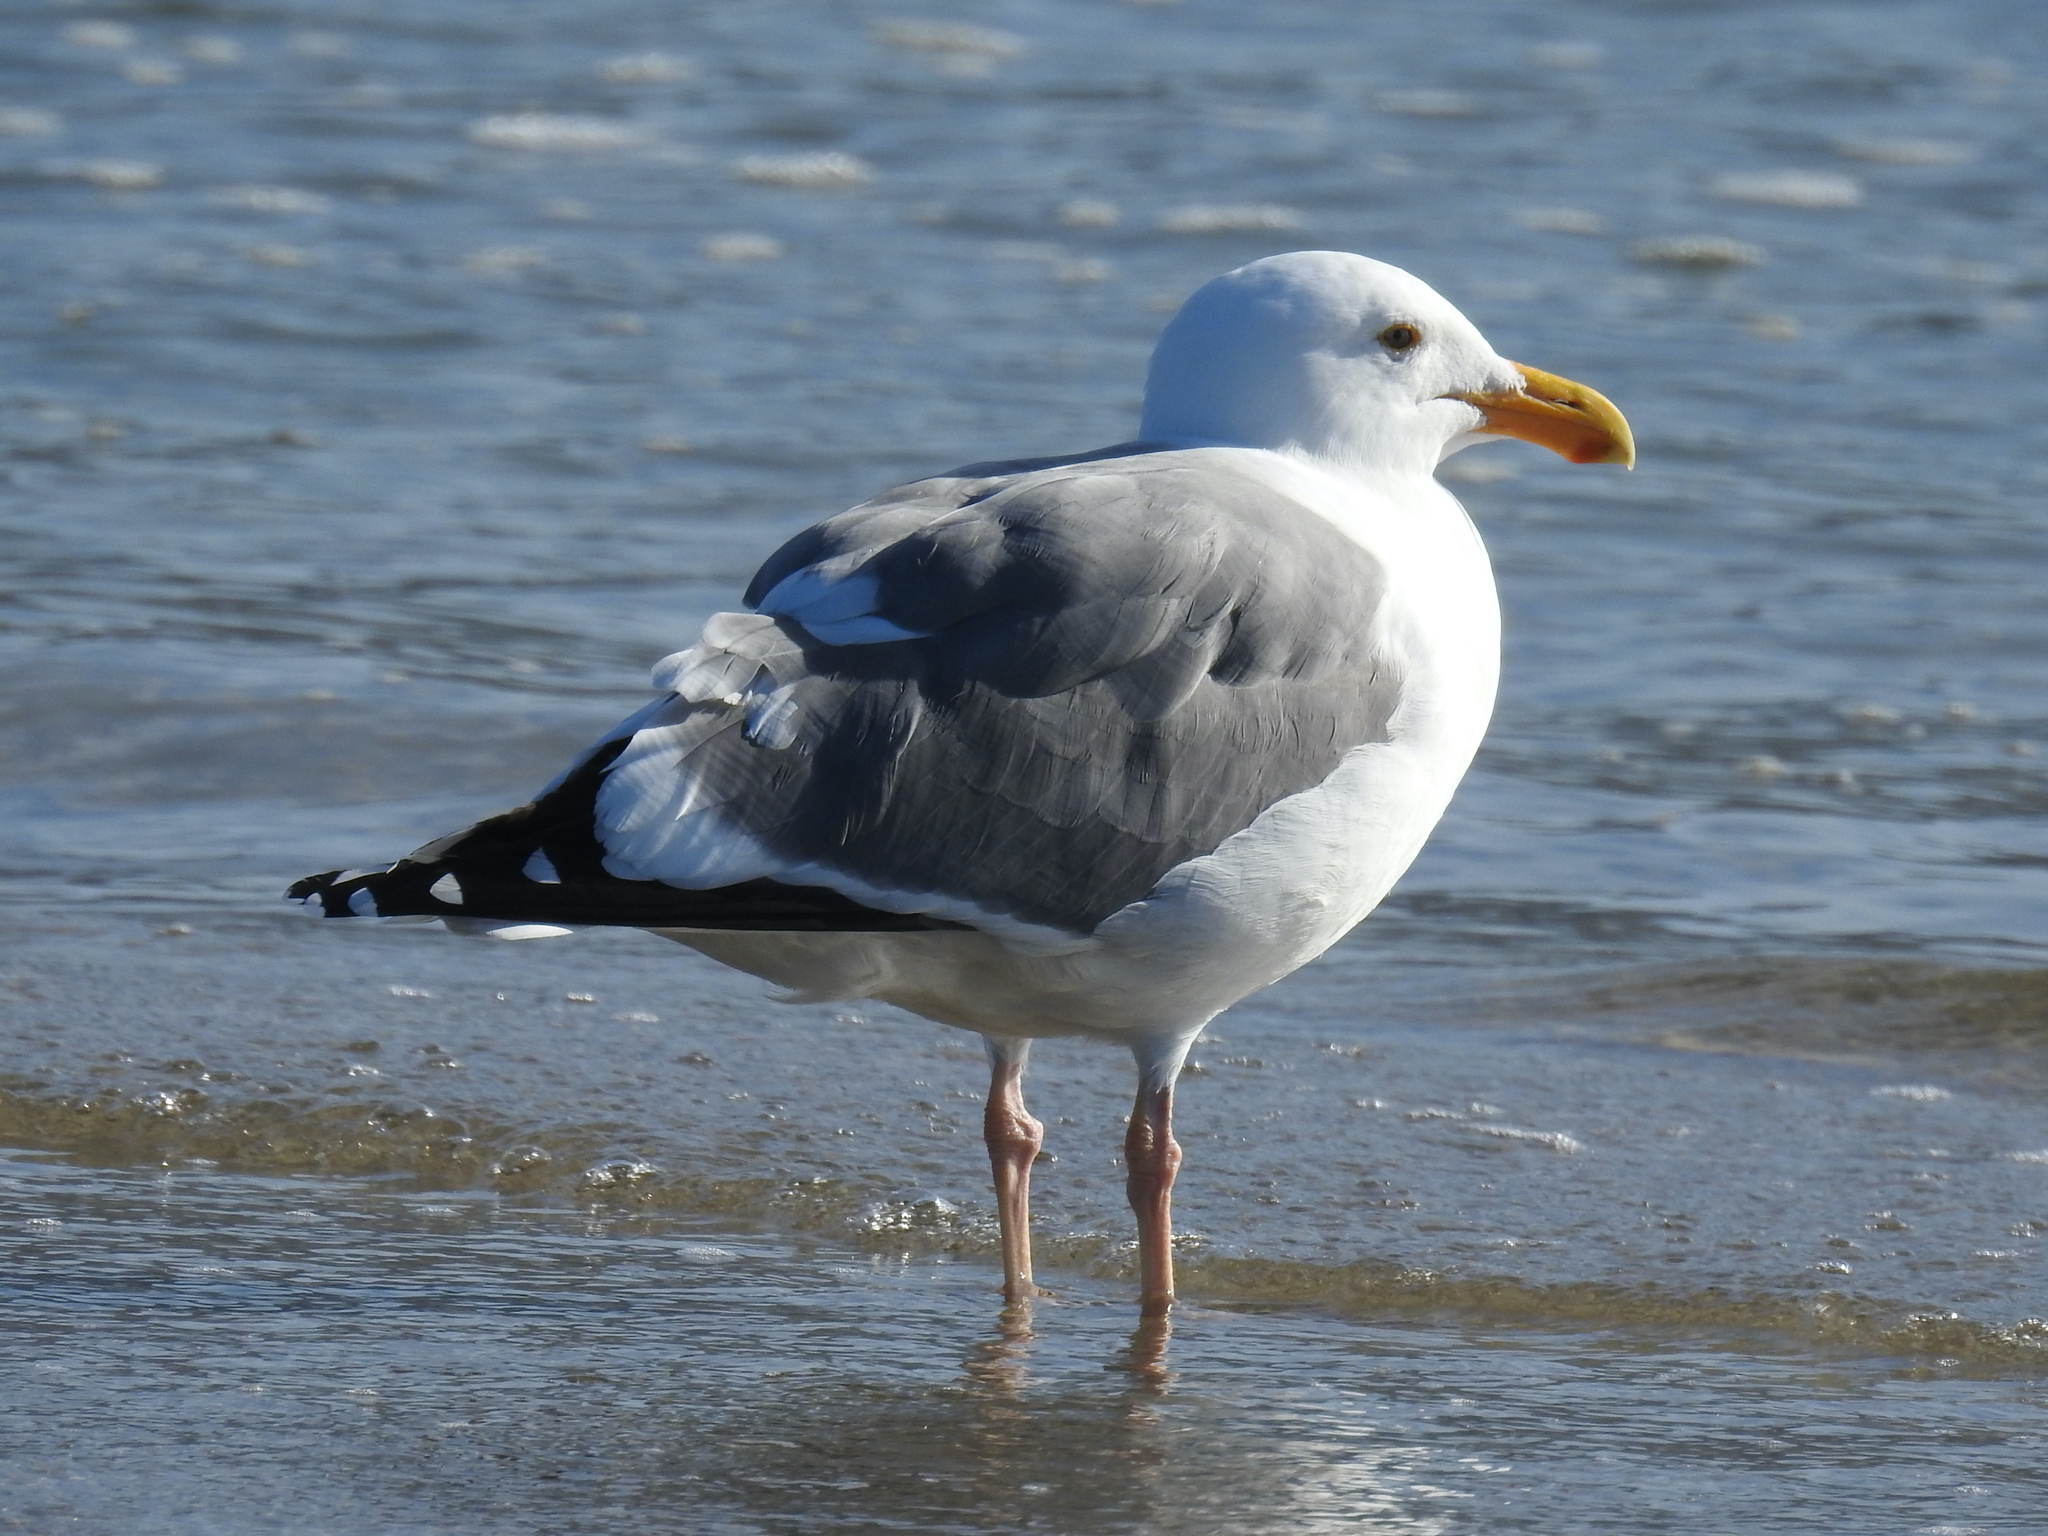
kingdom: Animalia
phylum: Chordata
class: Aves
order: Charadriiformes
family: Laridae
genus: Larus
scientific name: Larus occidentalis
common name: Western gull
